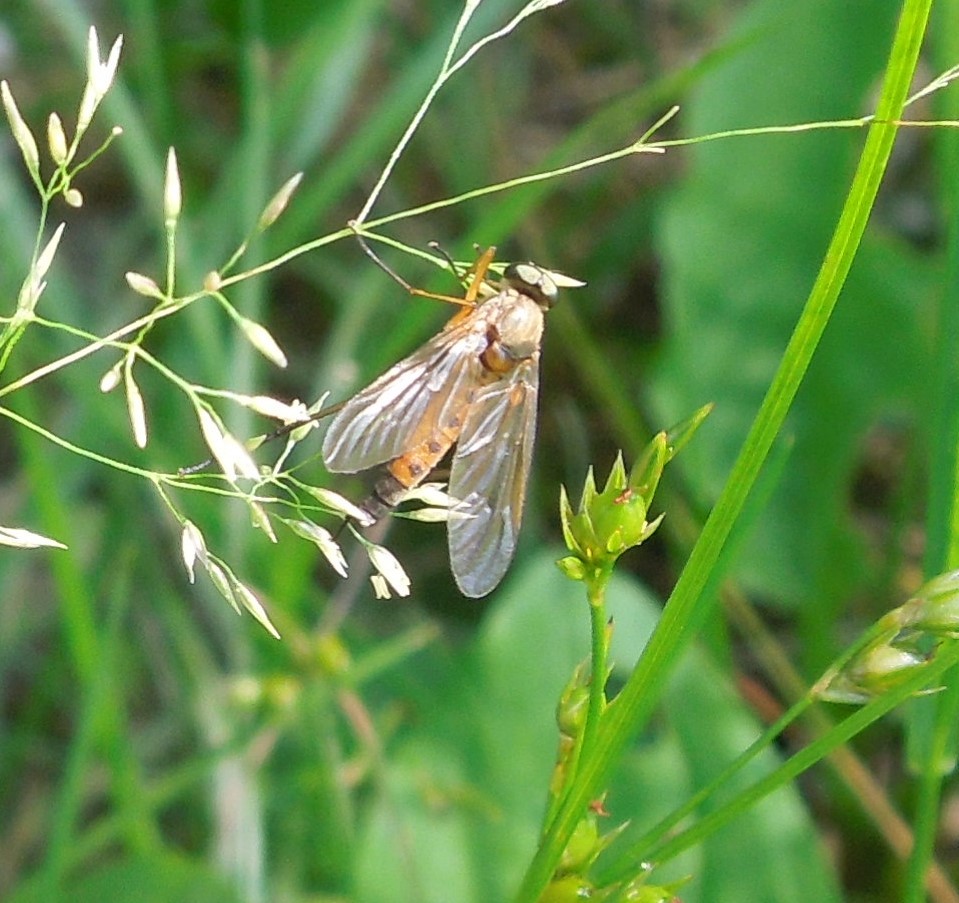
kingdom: Animalia
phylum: Arthropoda
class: Insecta
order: Diptera
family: Rhagionidae
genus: Rhagio
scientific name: Rhagio tringaria
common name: Marsh snipefly
